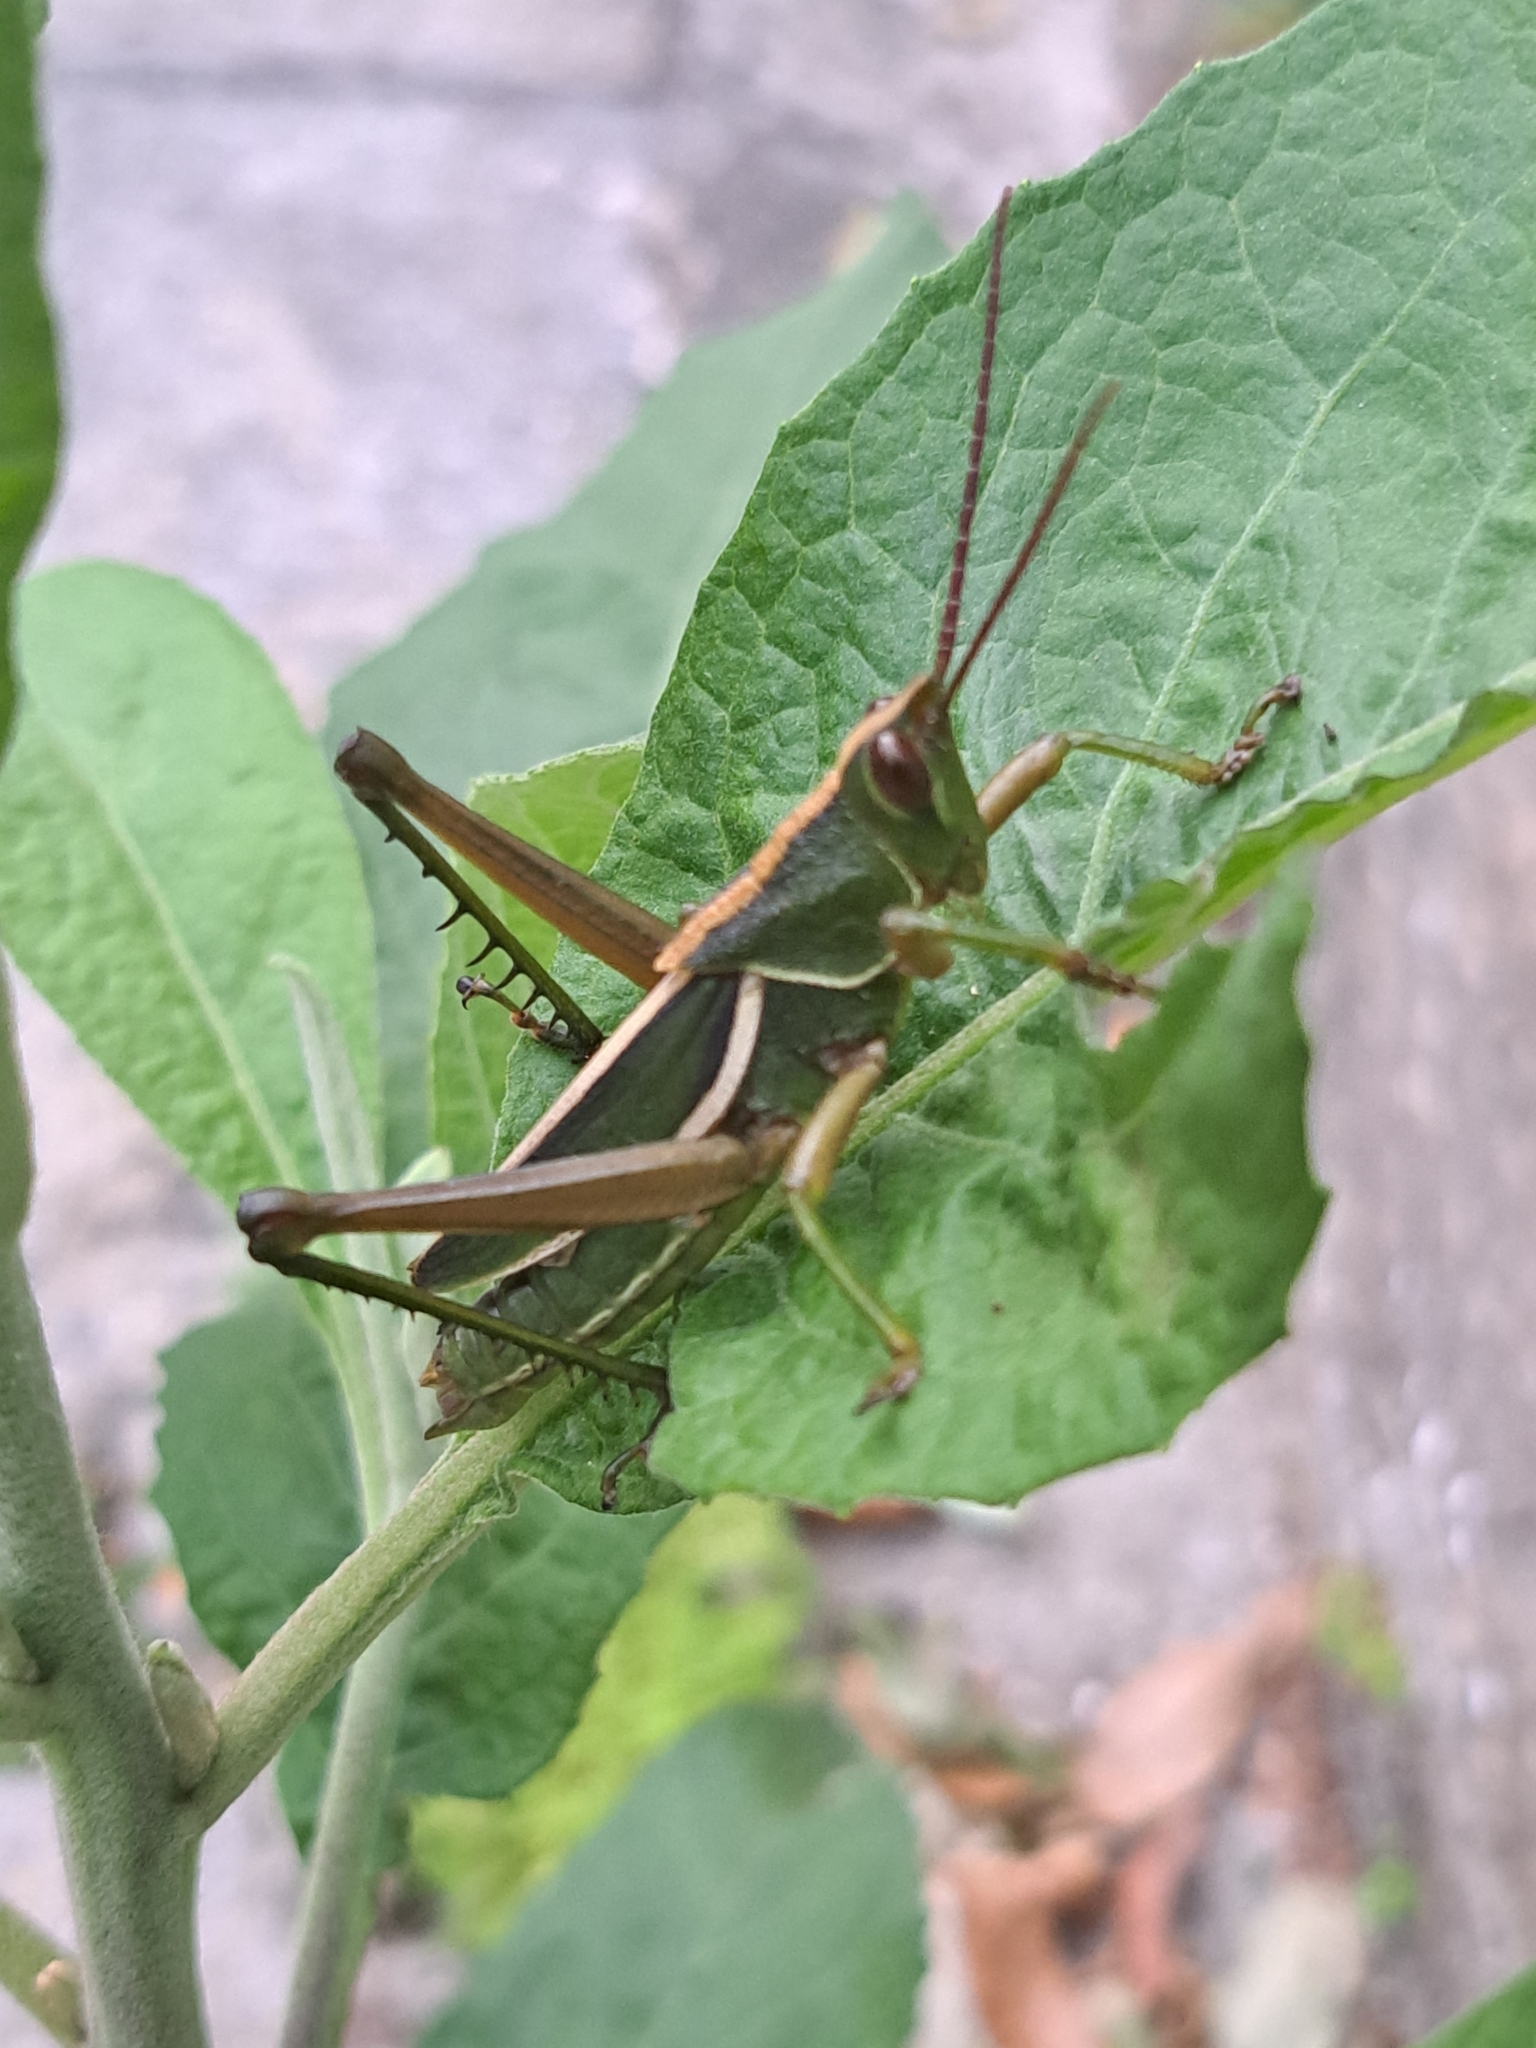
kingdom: Animalia
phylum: Arthropoda
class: Insecta
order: Orthoptera
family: Romaleidae
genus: Staleochlora
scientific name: Staleochlora trilineata
